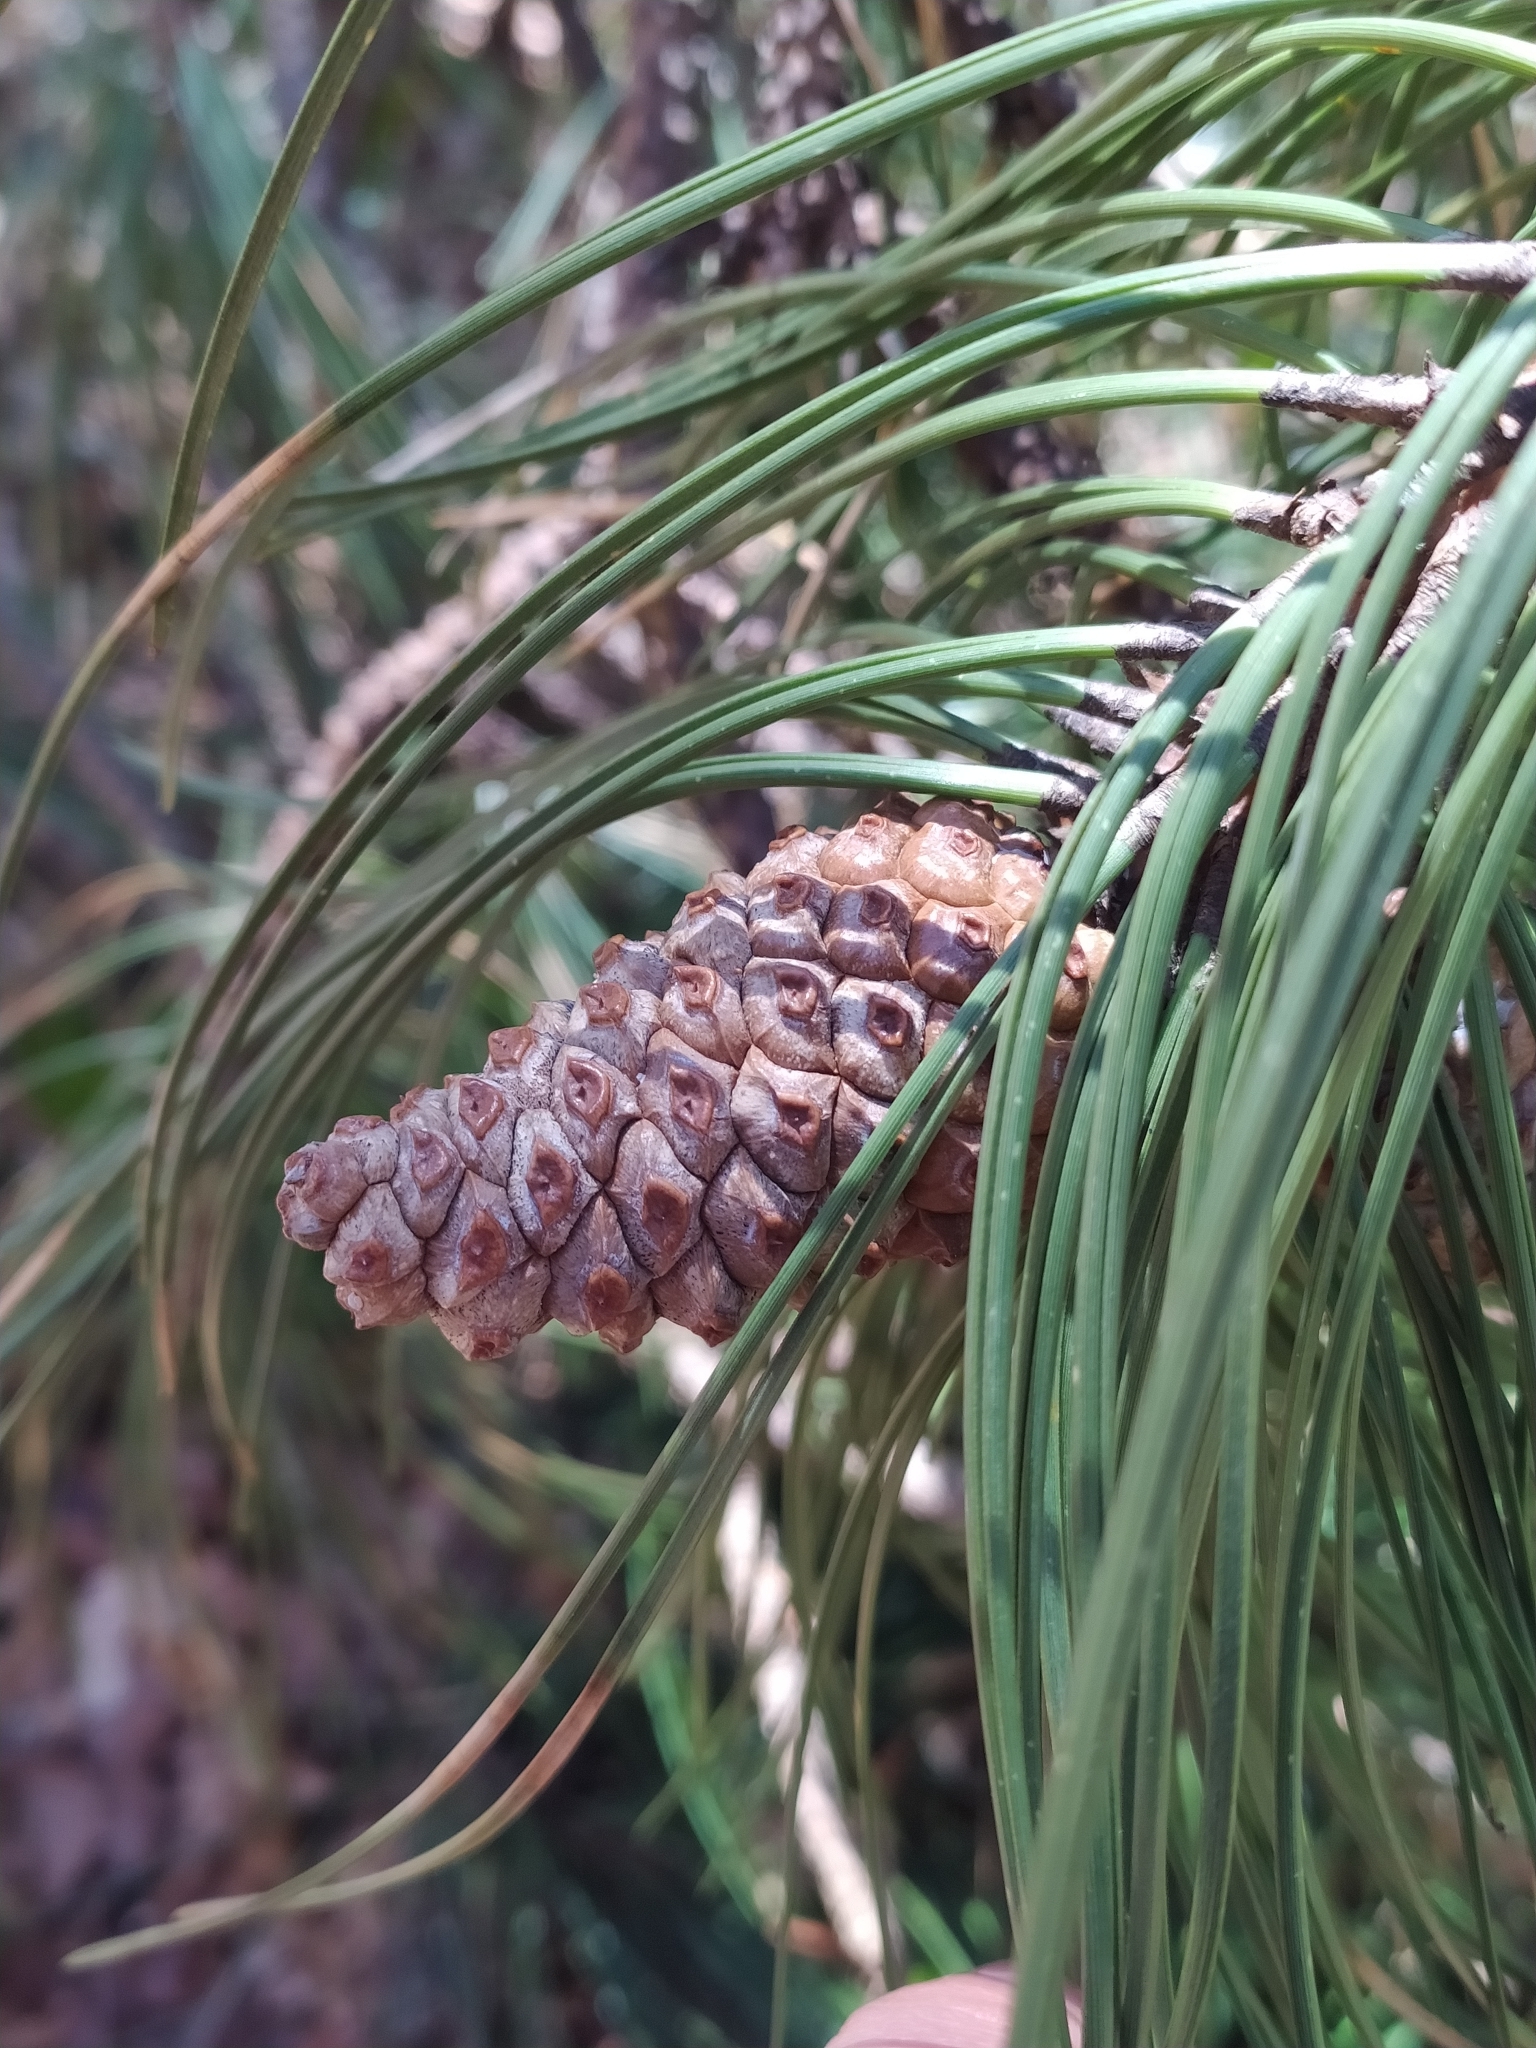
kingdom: Plantae
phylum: Tracheophyta
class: Pinopsida
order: Pinales
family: Pinaceae
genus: Pinus
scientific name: Pinus pinaster
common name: Maritime pine
